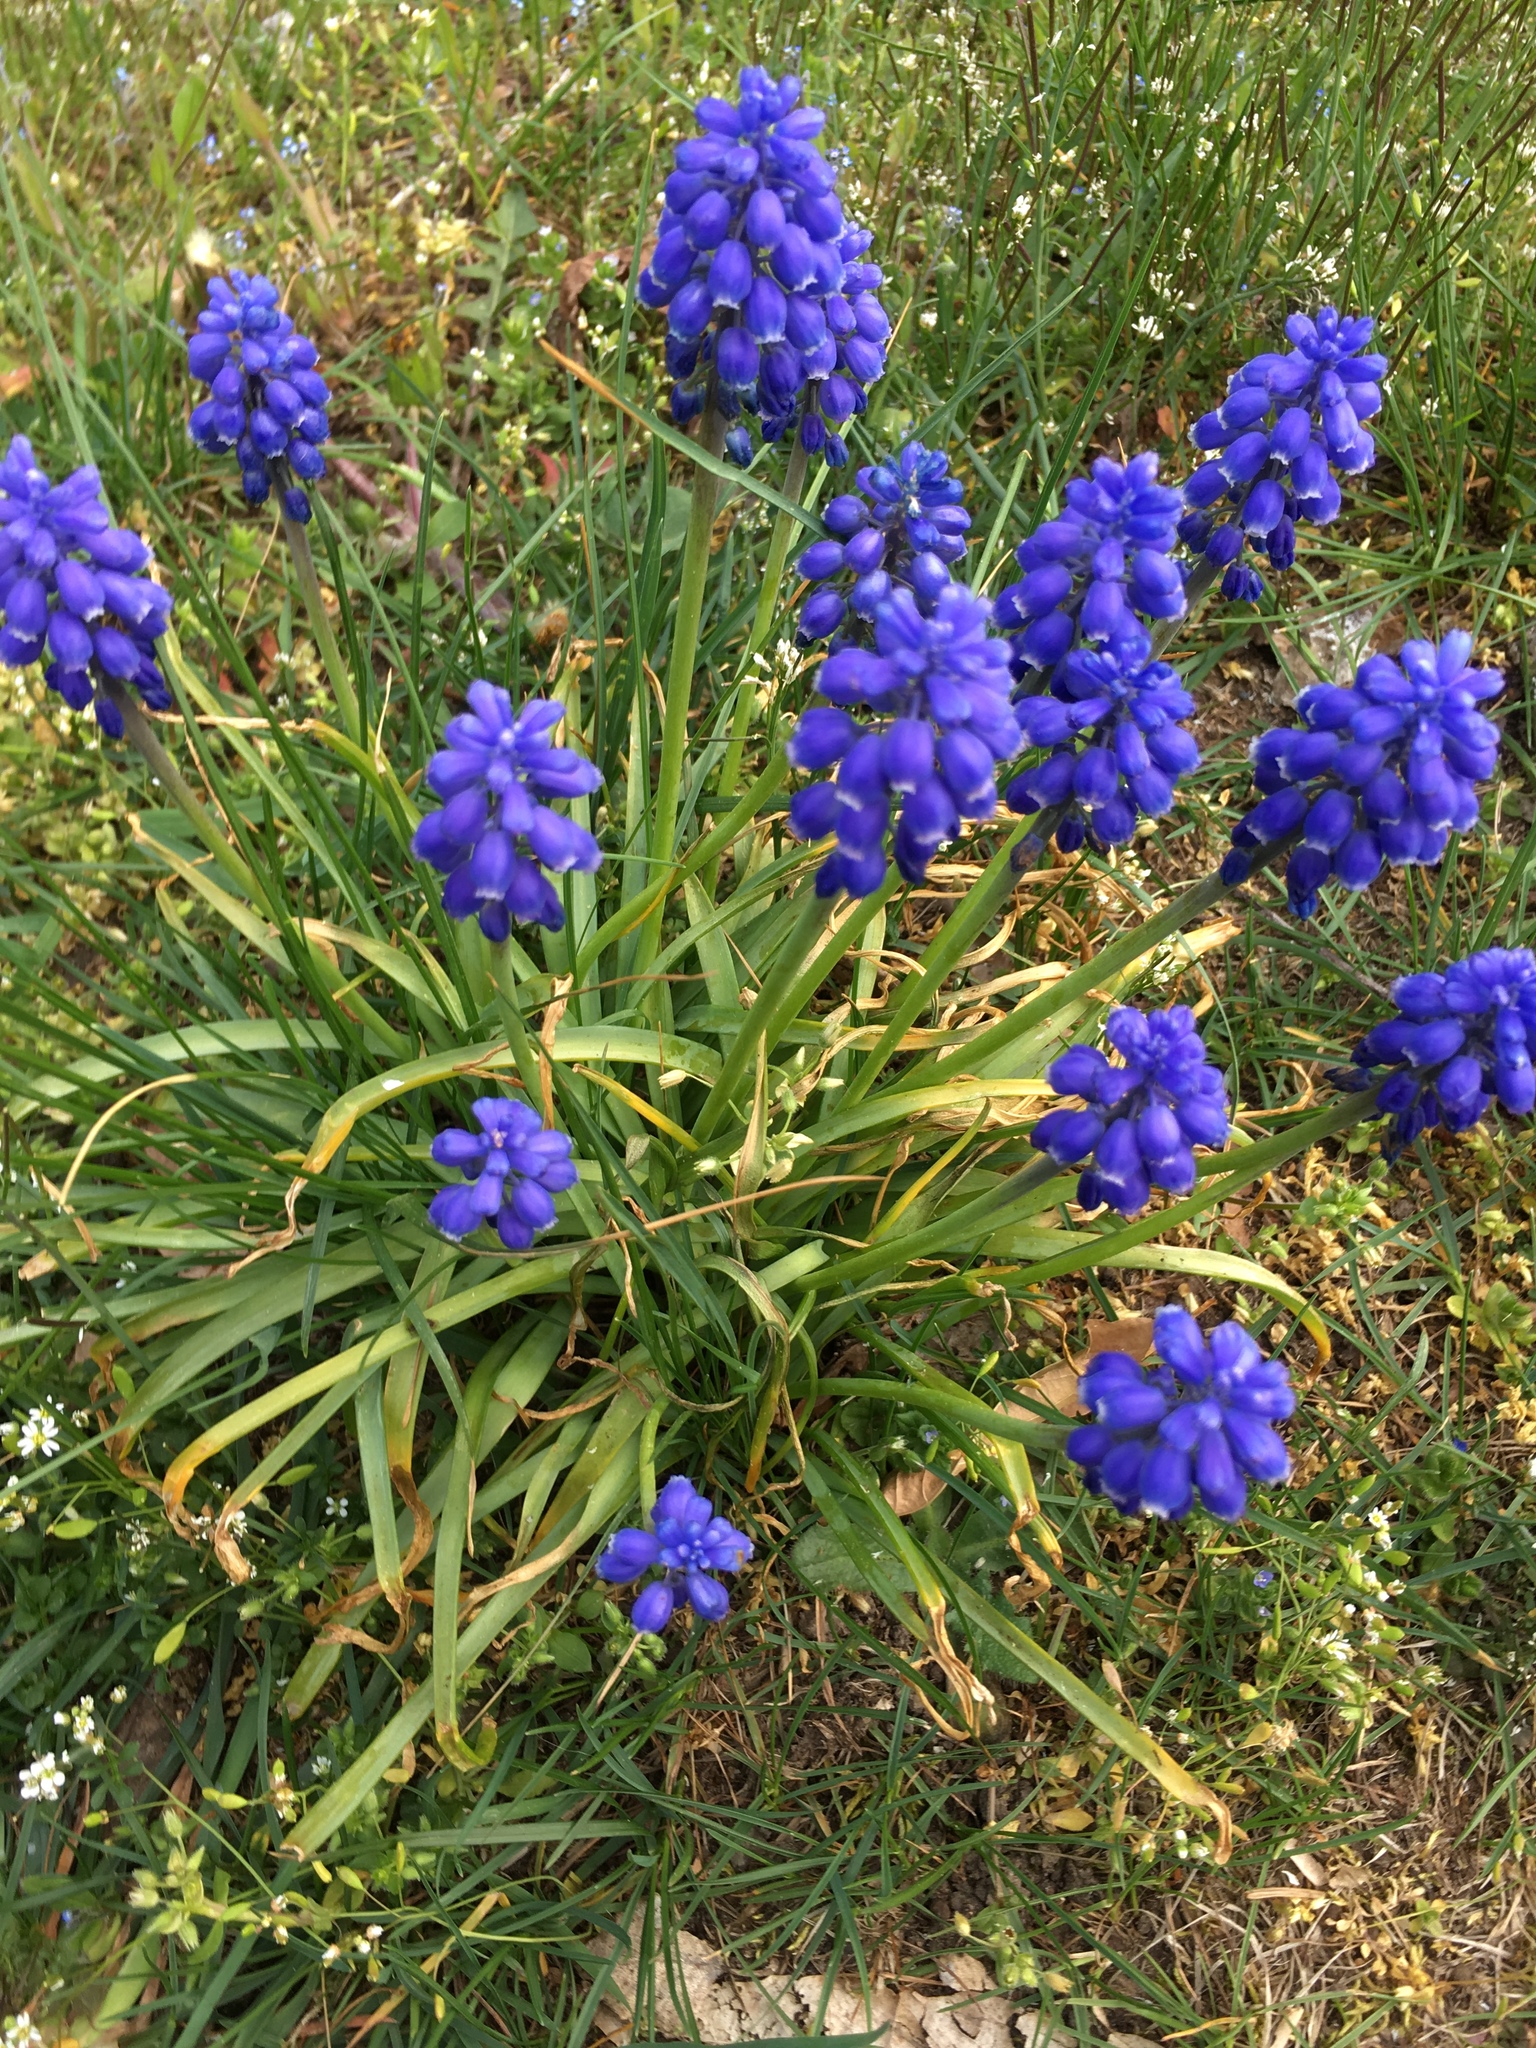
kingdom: Plantae
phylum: Tracheophyta
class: Liliopsida
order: Asparagales
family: Asparagaceae
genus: Muscari
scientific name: Muscari armeniacum
